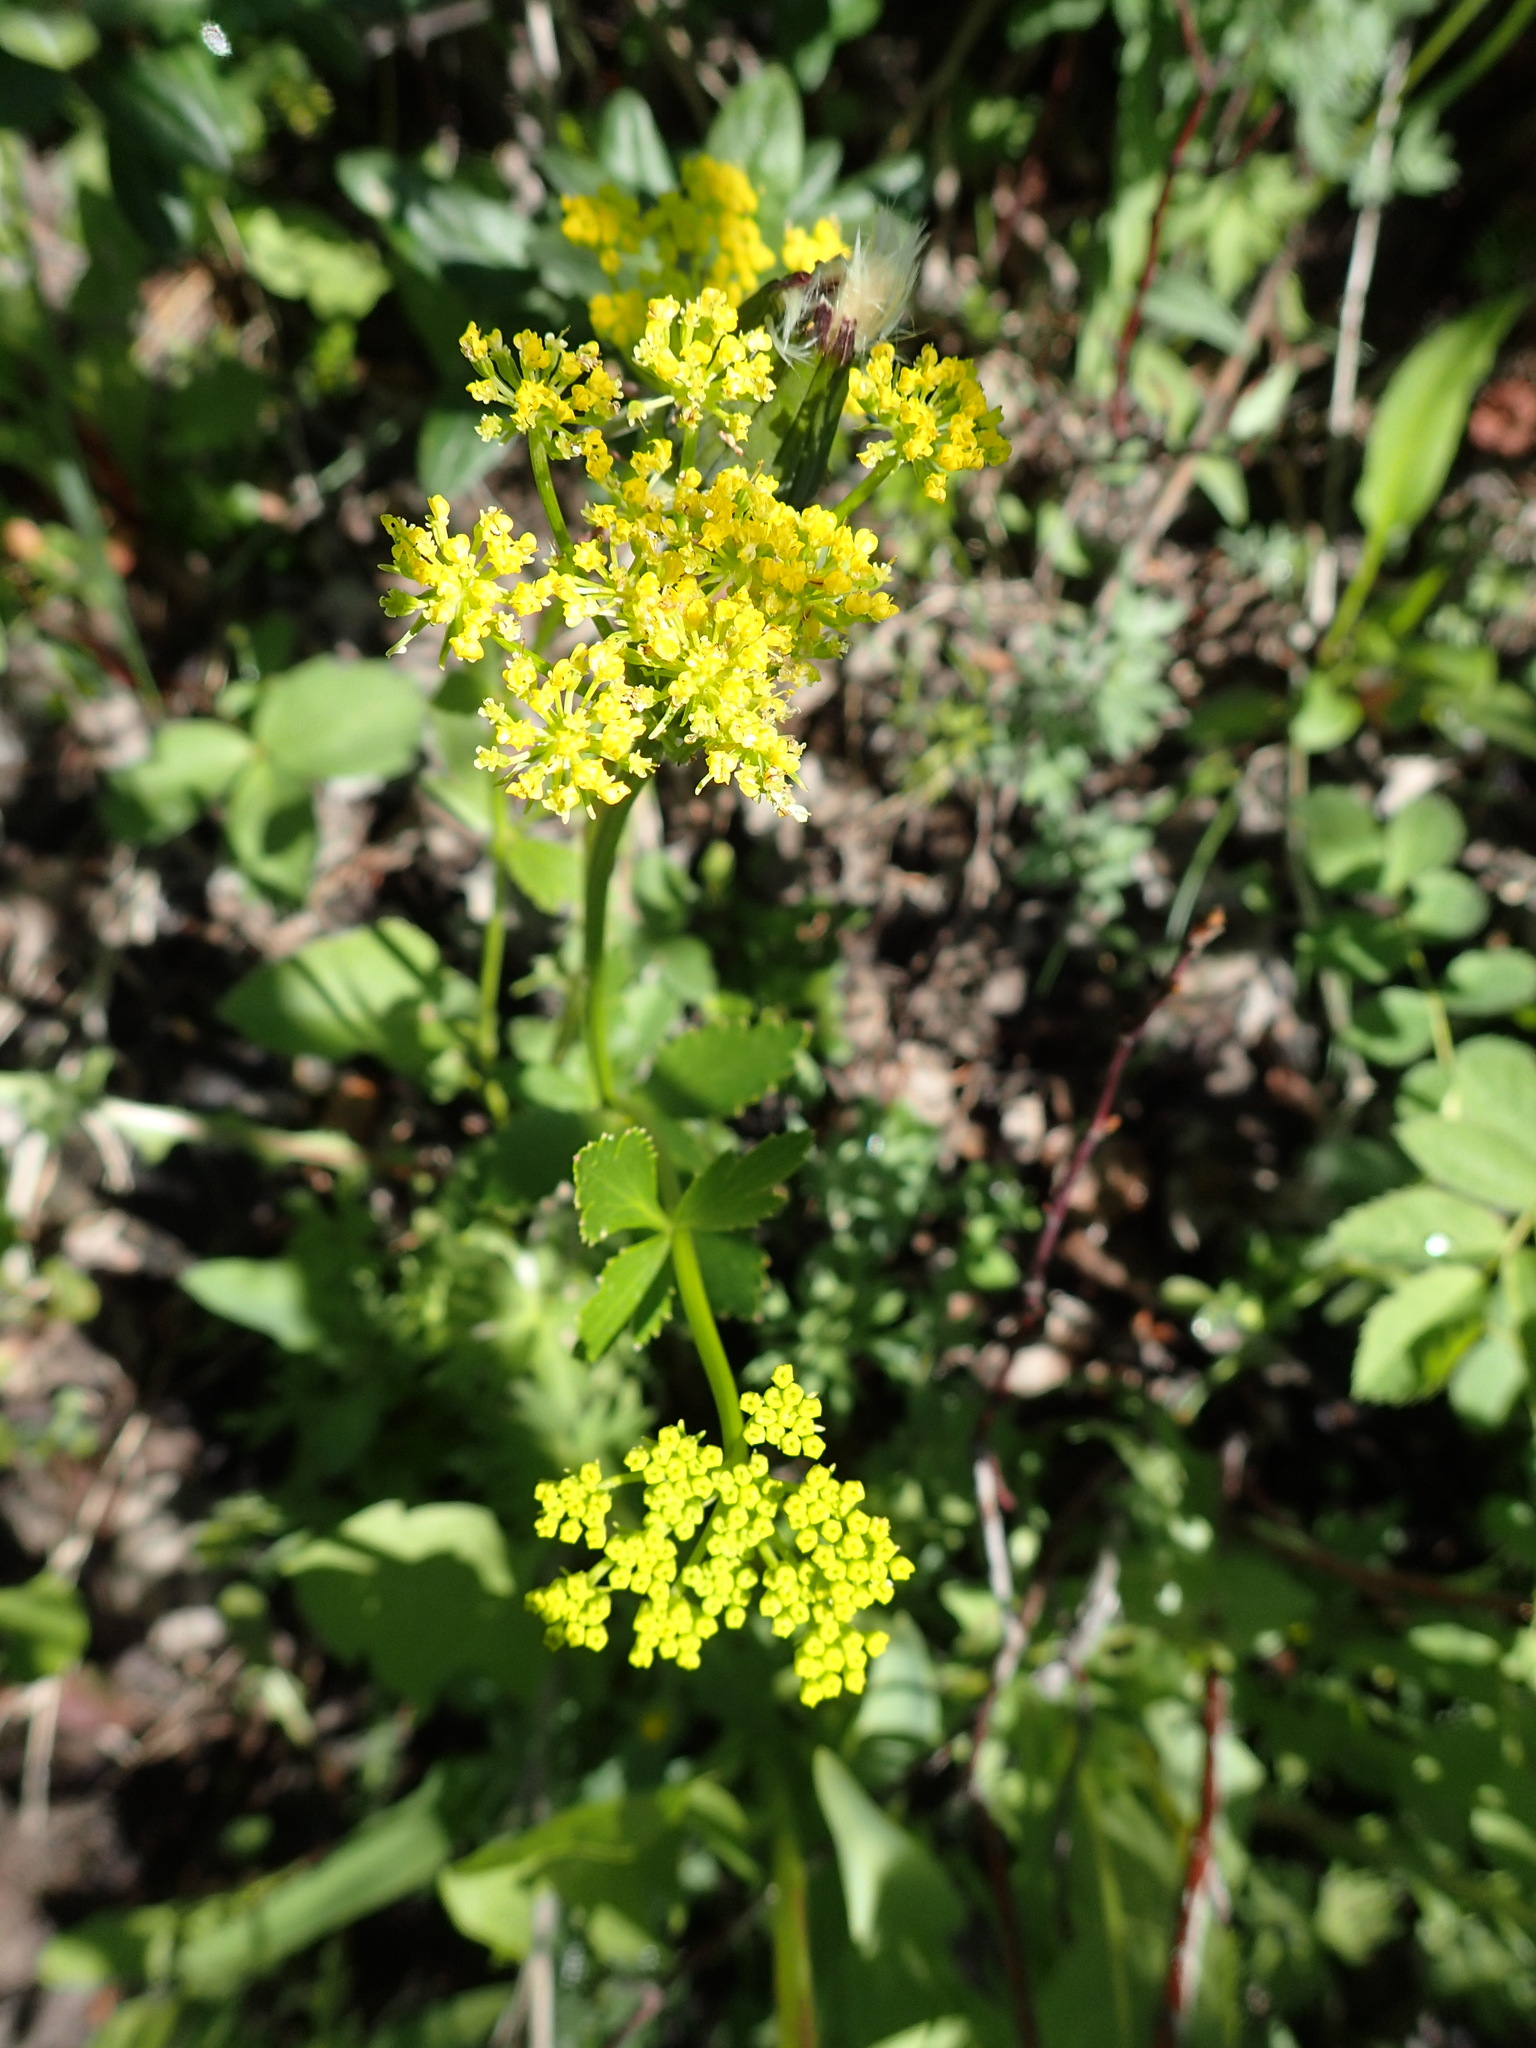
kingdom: Plantae
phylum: Tracheophyta
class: Magnoliopsida
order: Apiales
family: Apiaceae
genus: Zizia
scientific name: Zizia aptera
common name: Heart-leaved alexanders
